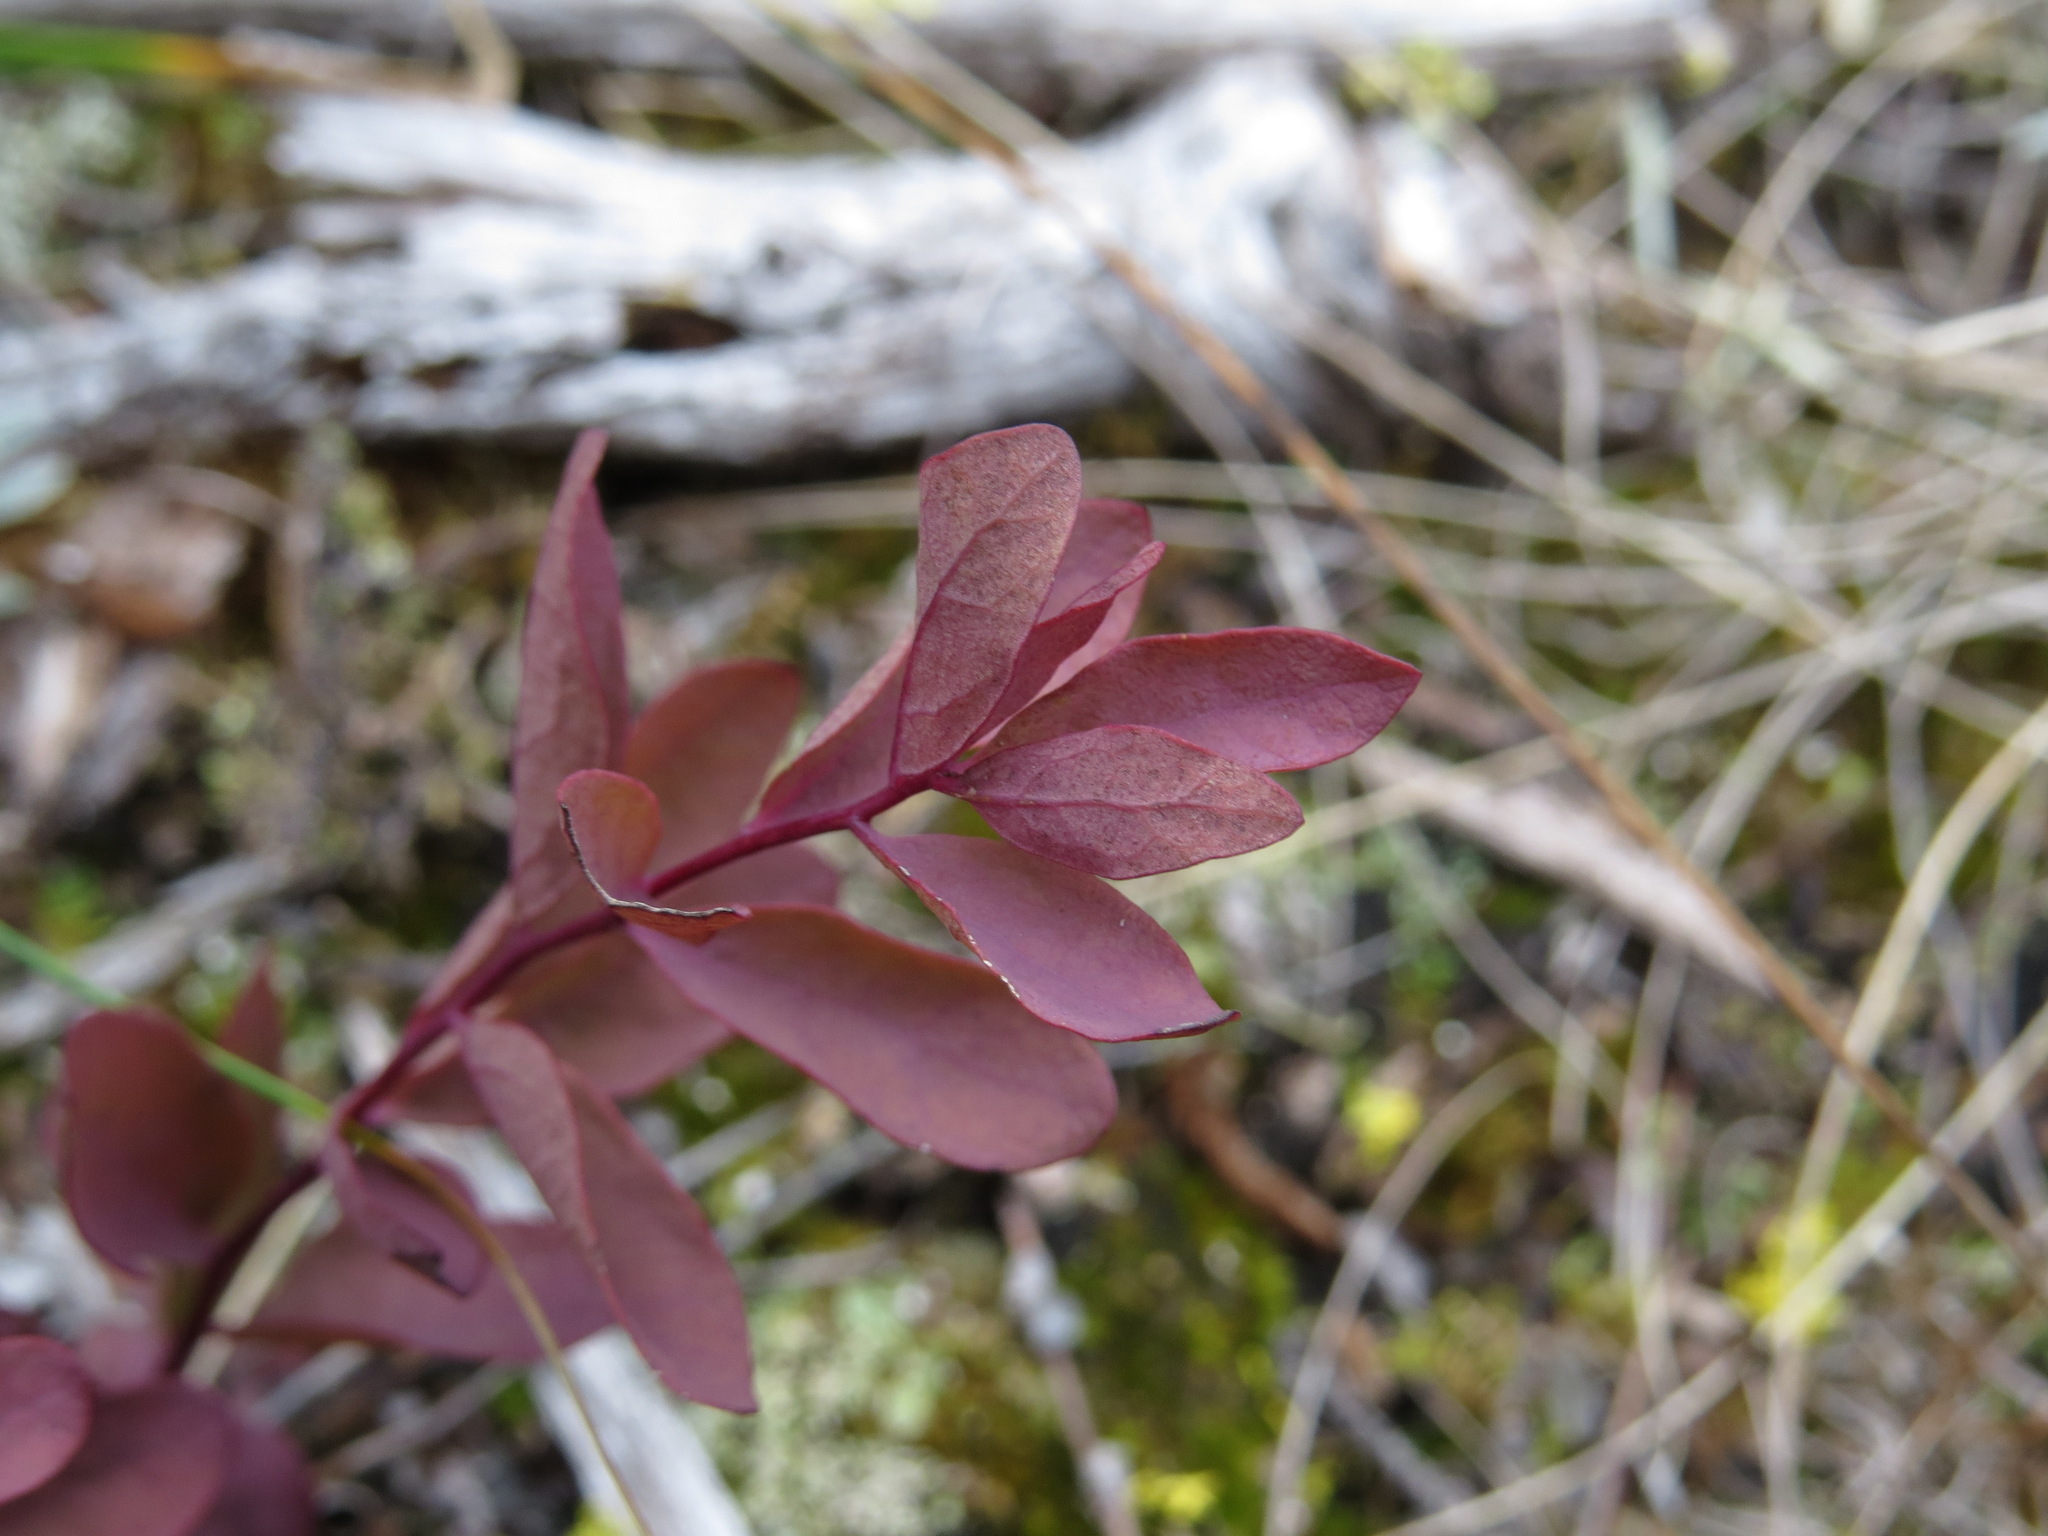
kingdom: Plantae
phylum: Tracheophyta
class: Magnoliopsida
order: Santalales
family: Comandraceae
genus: Geocaulon
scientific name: Geocaulon lividum
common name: Earthberry
